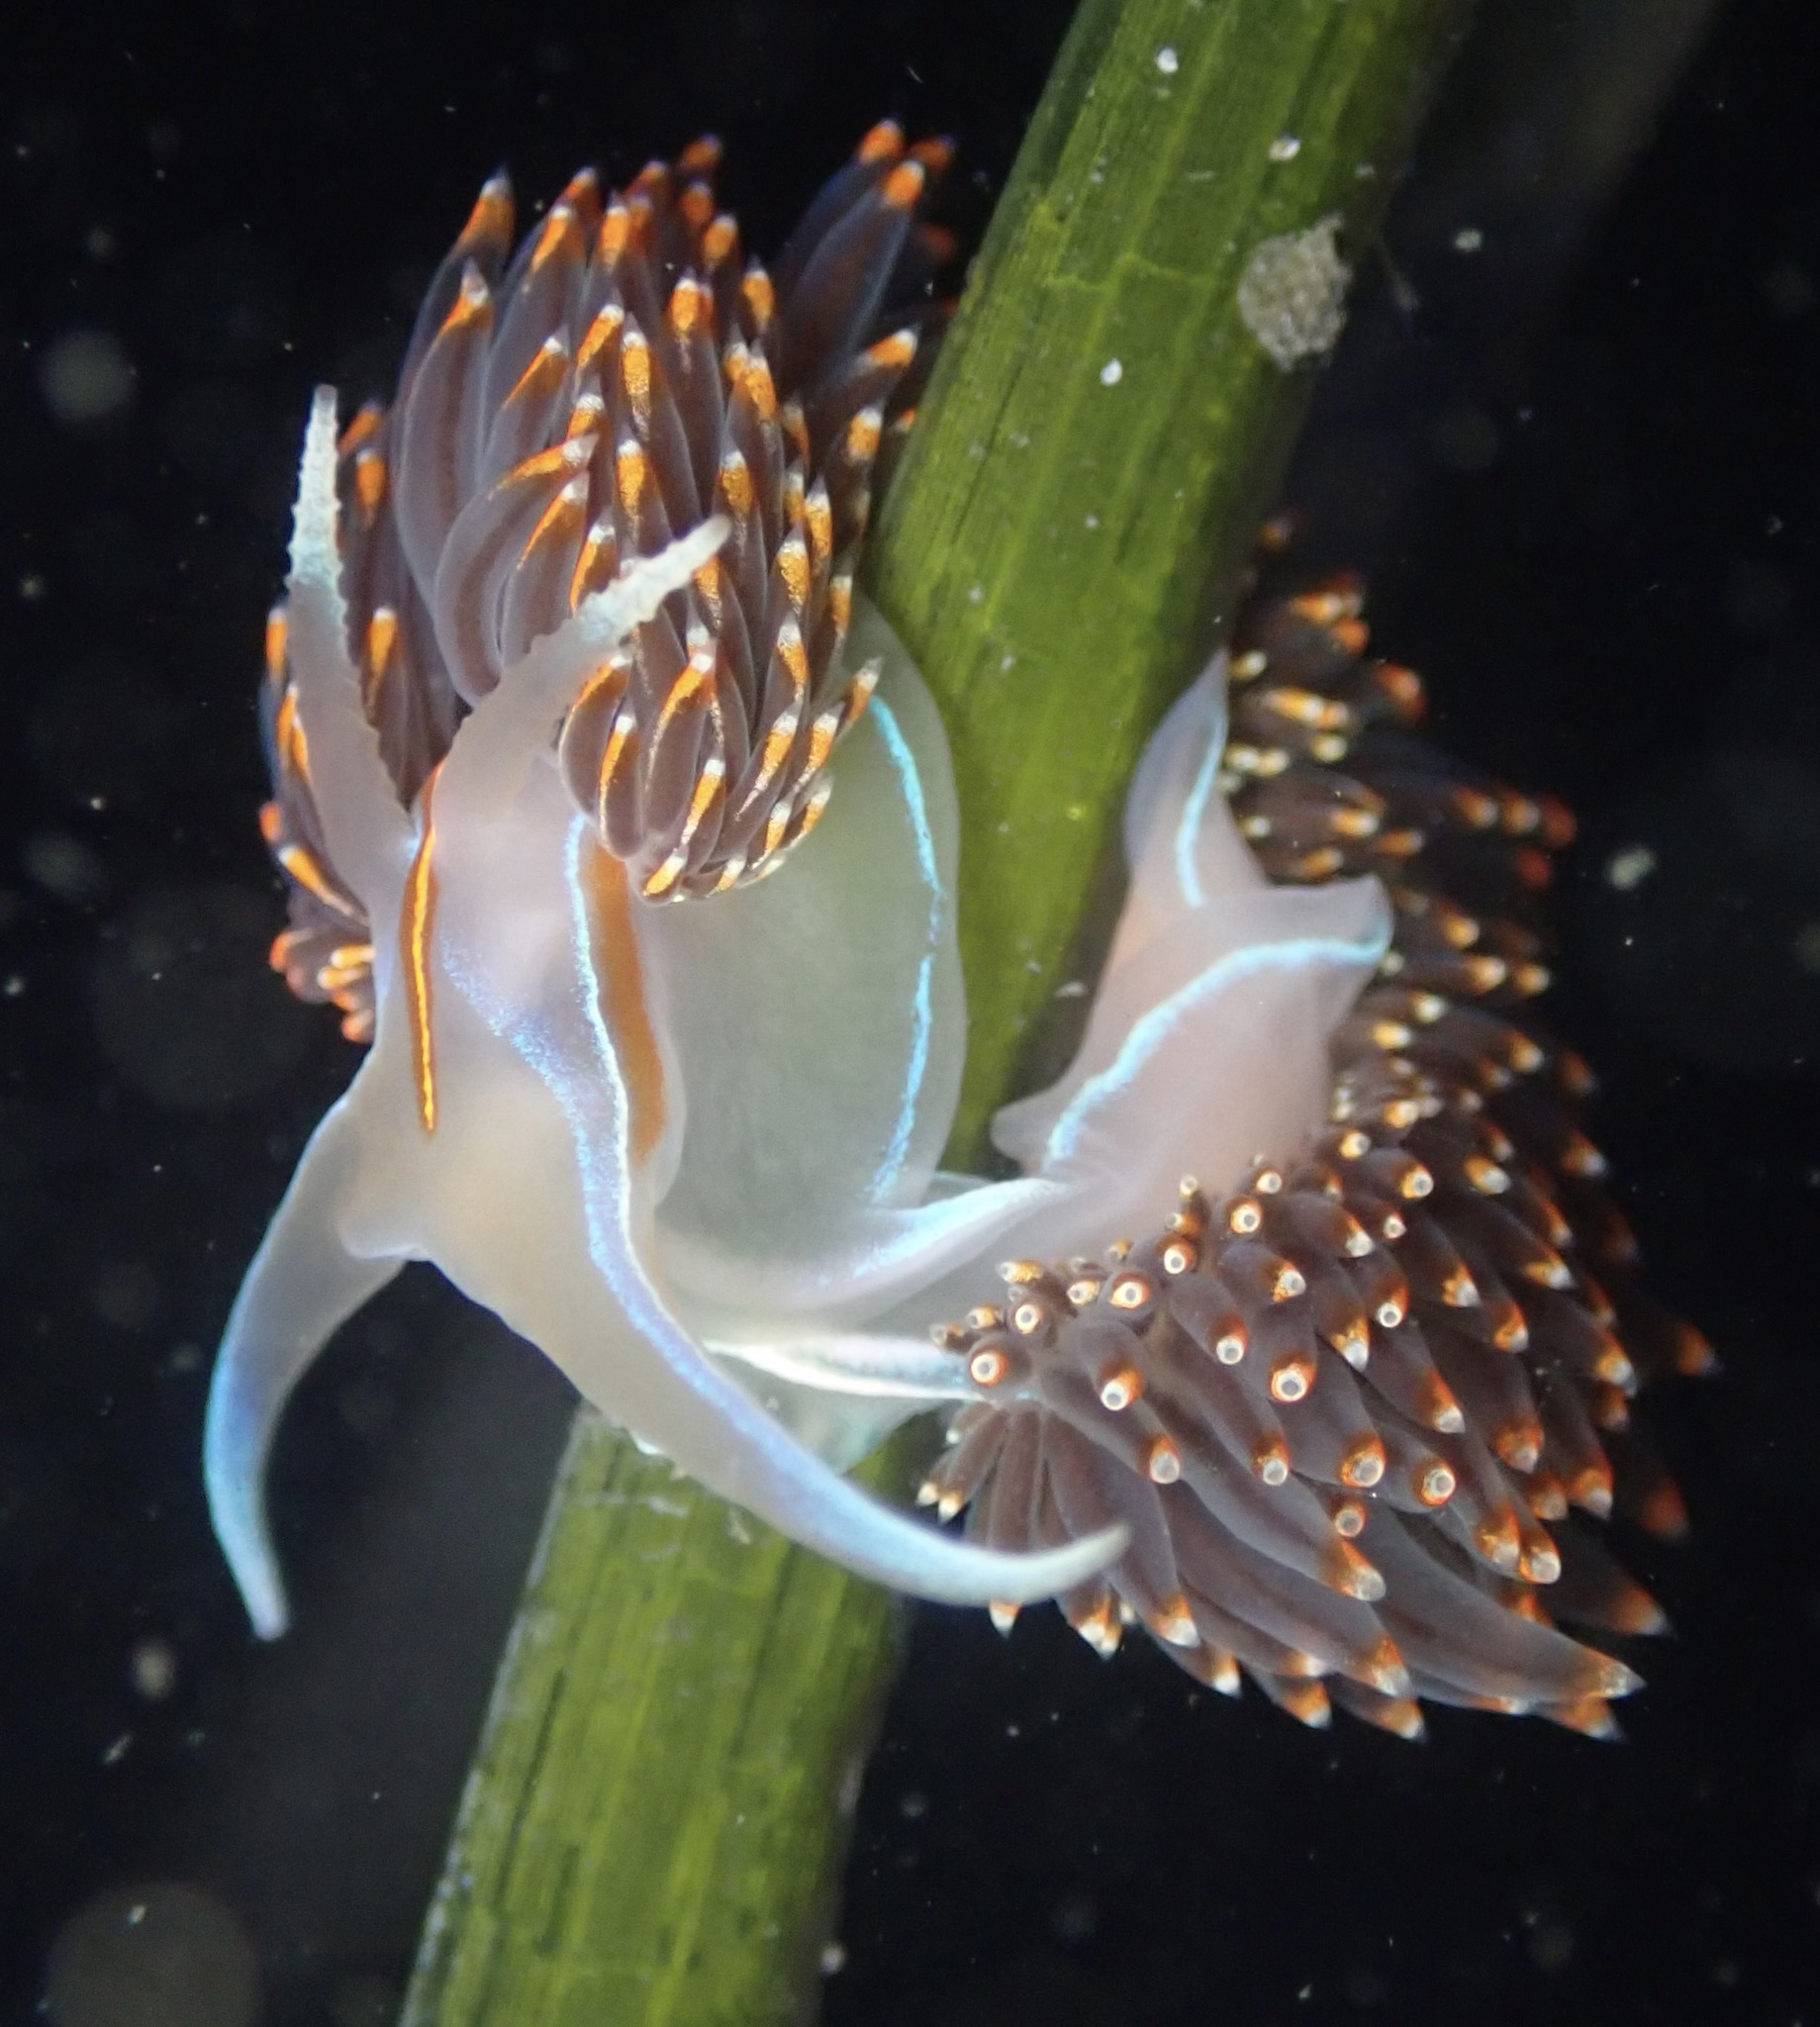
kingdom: Animalia
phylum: Mollusca
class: Gastropoda
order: Nudibranchia
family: Myrrhinidae
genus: Hermissenda
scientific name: Hermissenda opalescens
